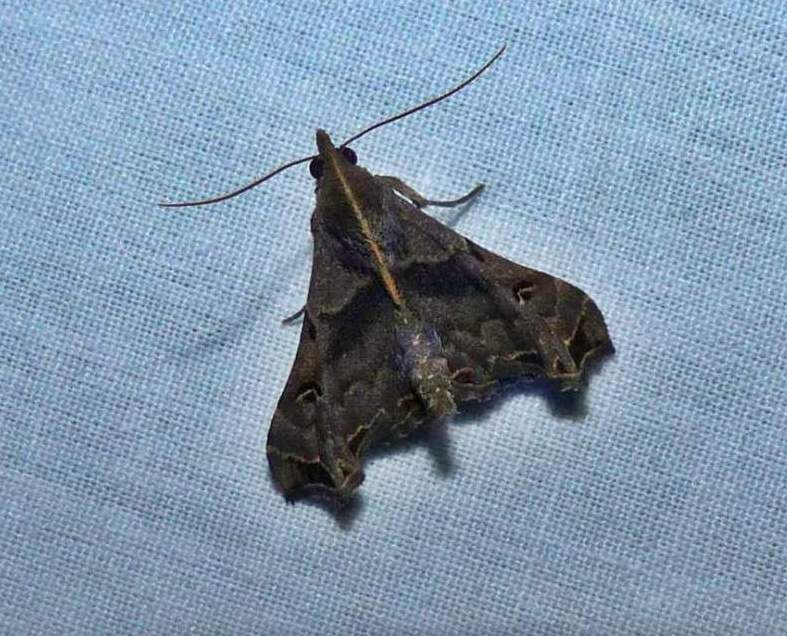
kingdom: Animalia
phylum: Arthropoda
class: Insecta
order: Lepidoptera
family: Erebidae
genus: Palthis
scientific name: Palthis asopialis
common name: Faint-spotted palthis moth
